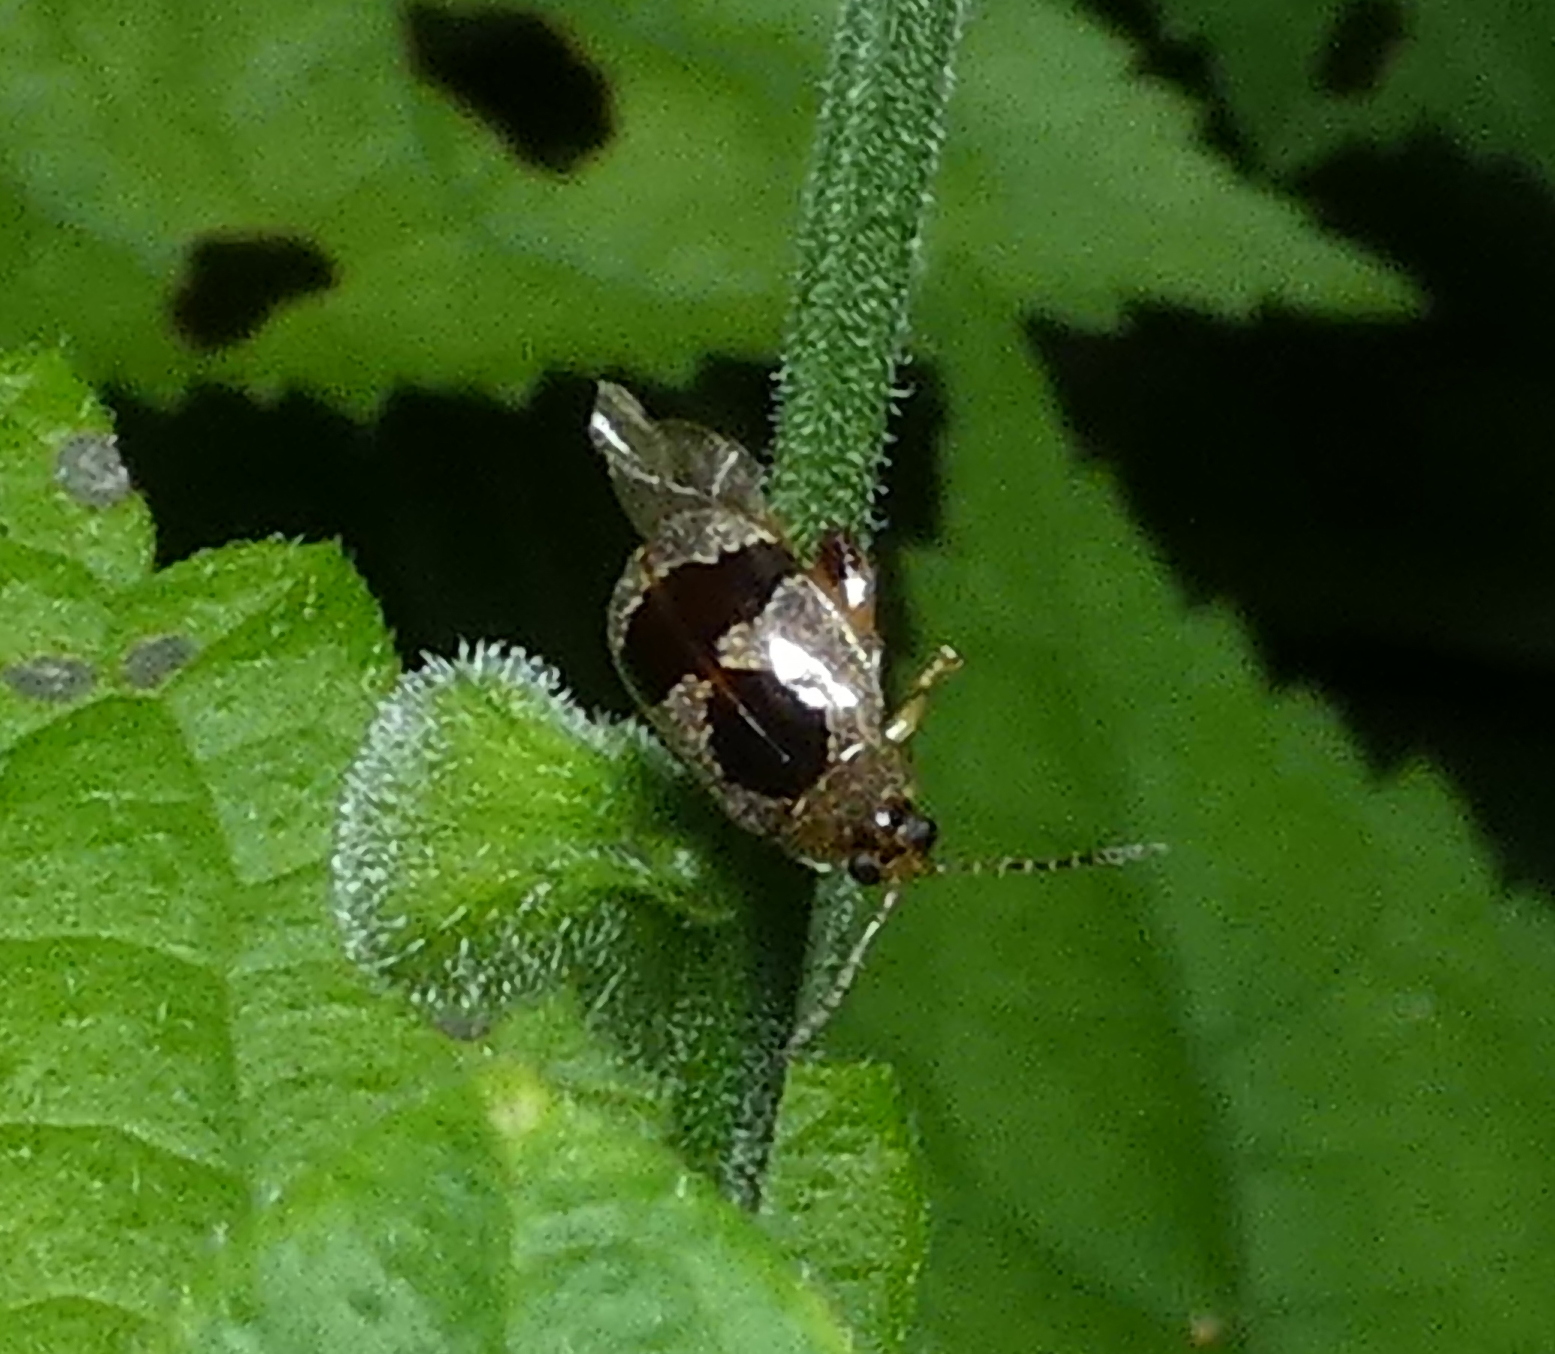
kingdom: Animalia
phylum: Arthropoda
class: Insecta
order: Coleoptera
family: Chrysomelidae
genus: Alagoasa
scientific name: Alagoasa
